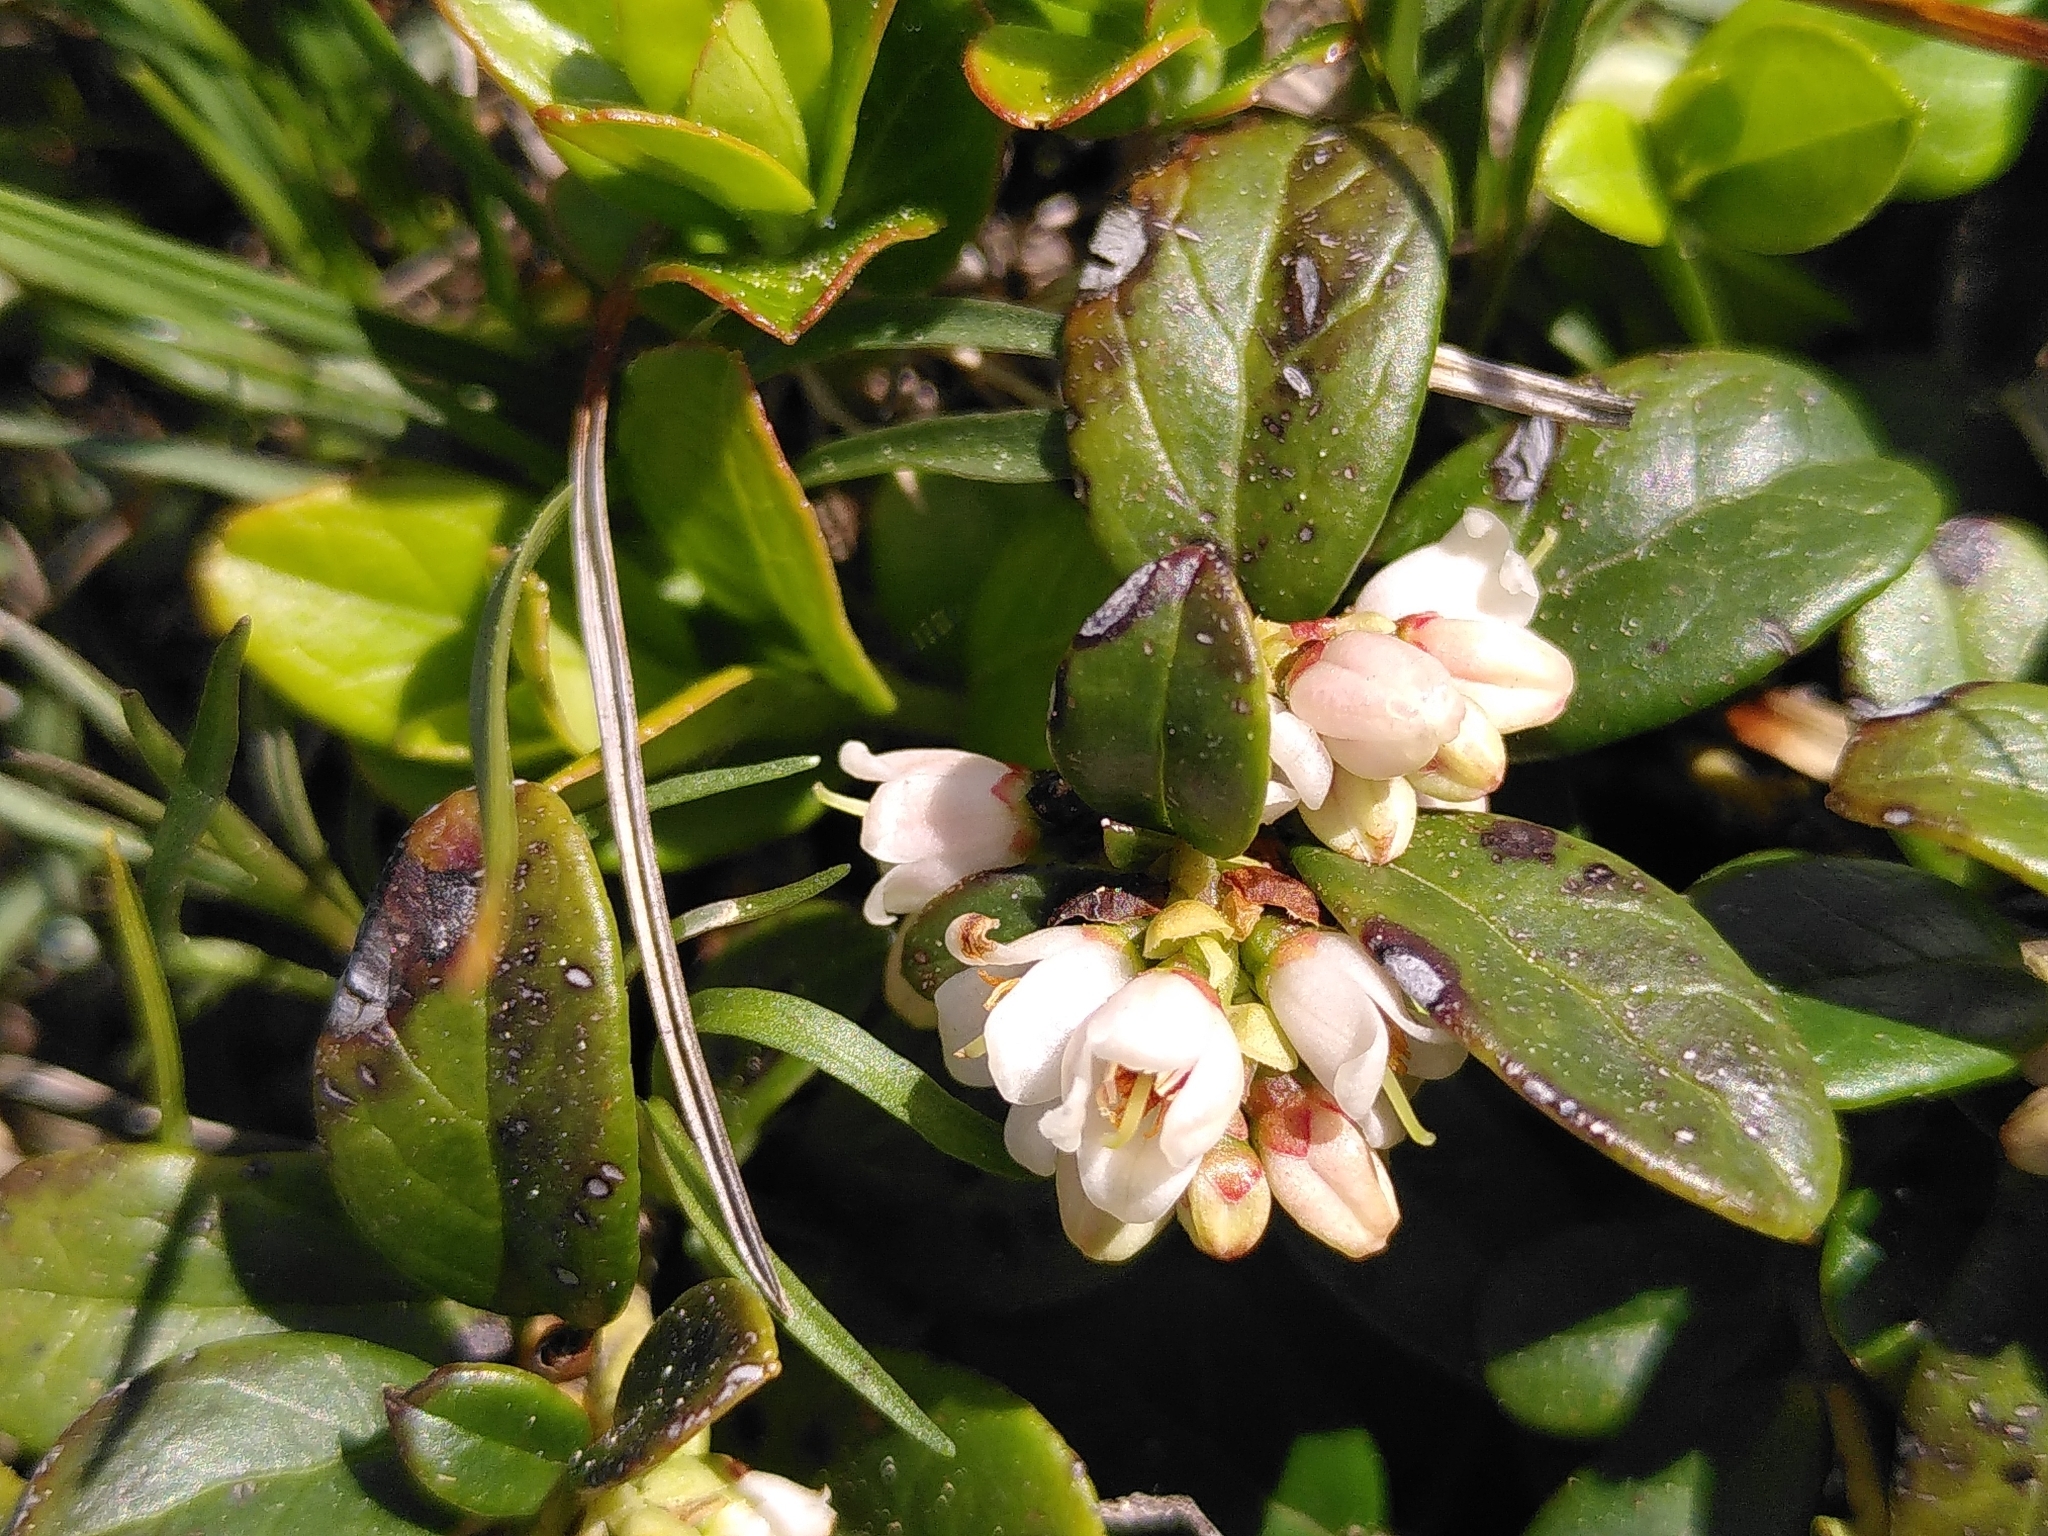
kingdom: Plantae
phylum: Tracheophyta
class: Magnoliopsida
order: Ericales
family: Ericaceae
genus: Vaccinium
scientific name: Vaccinium vitis-idaea
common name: Cowberry
